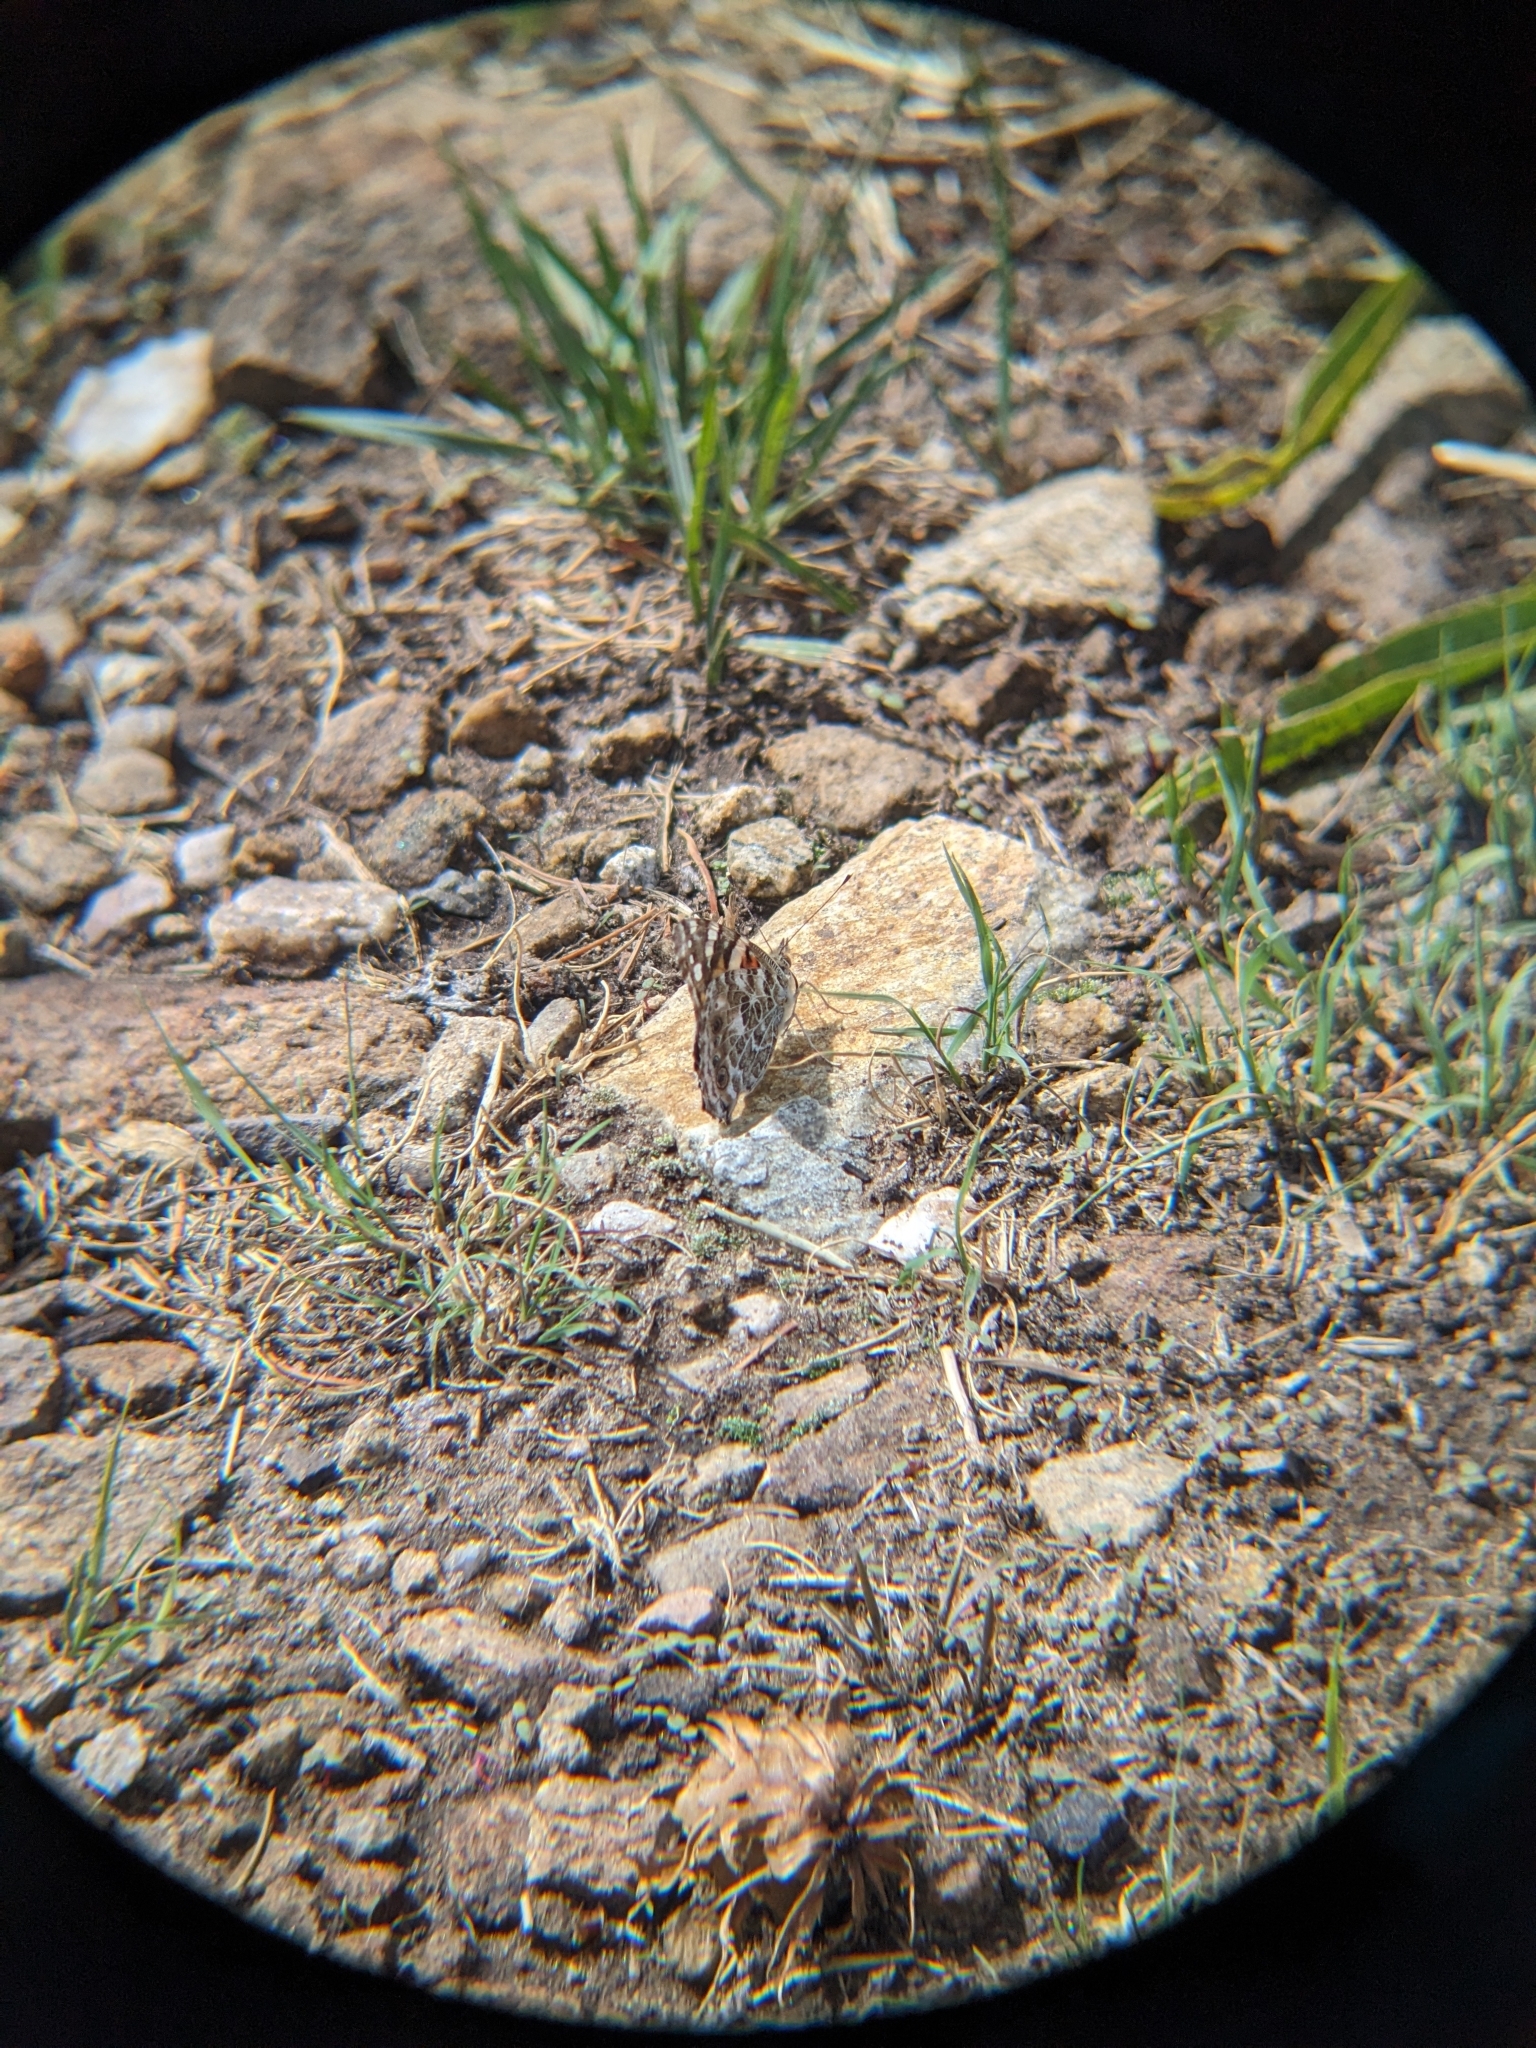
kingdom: Animalia
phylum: Arthropoda
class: Insecta
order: Lepidoptera
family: Nymphalidae
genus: Vanessa
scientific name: Vanessa cardui
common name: Painted lady
